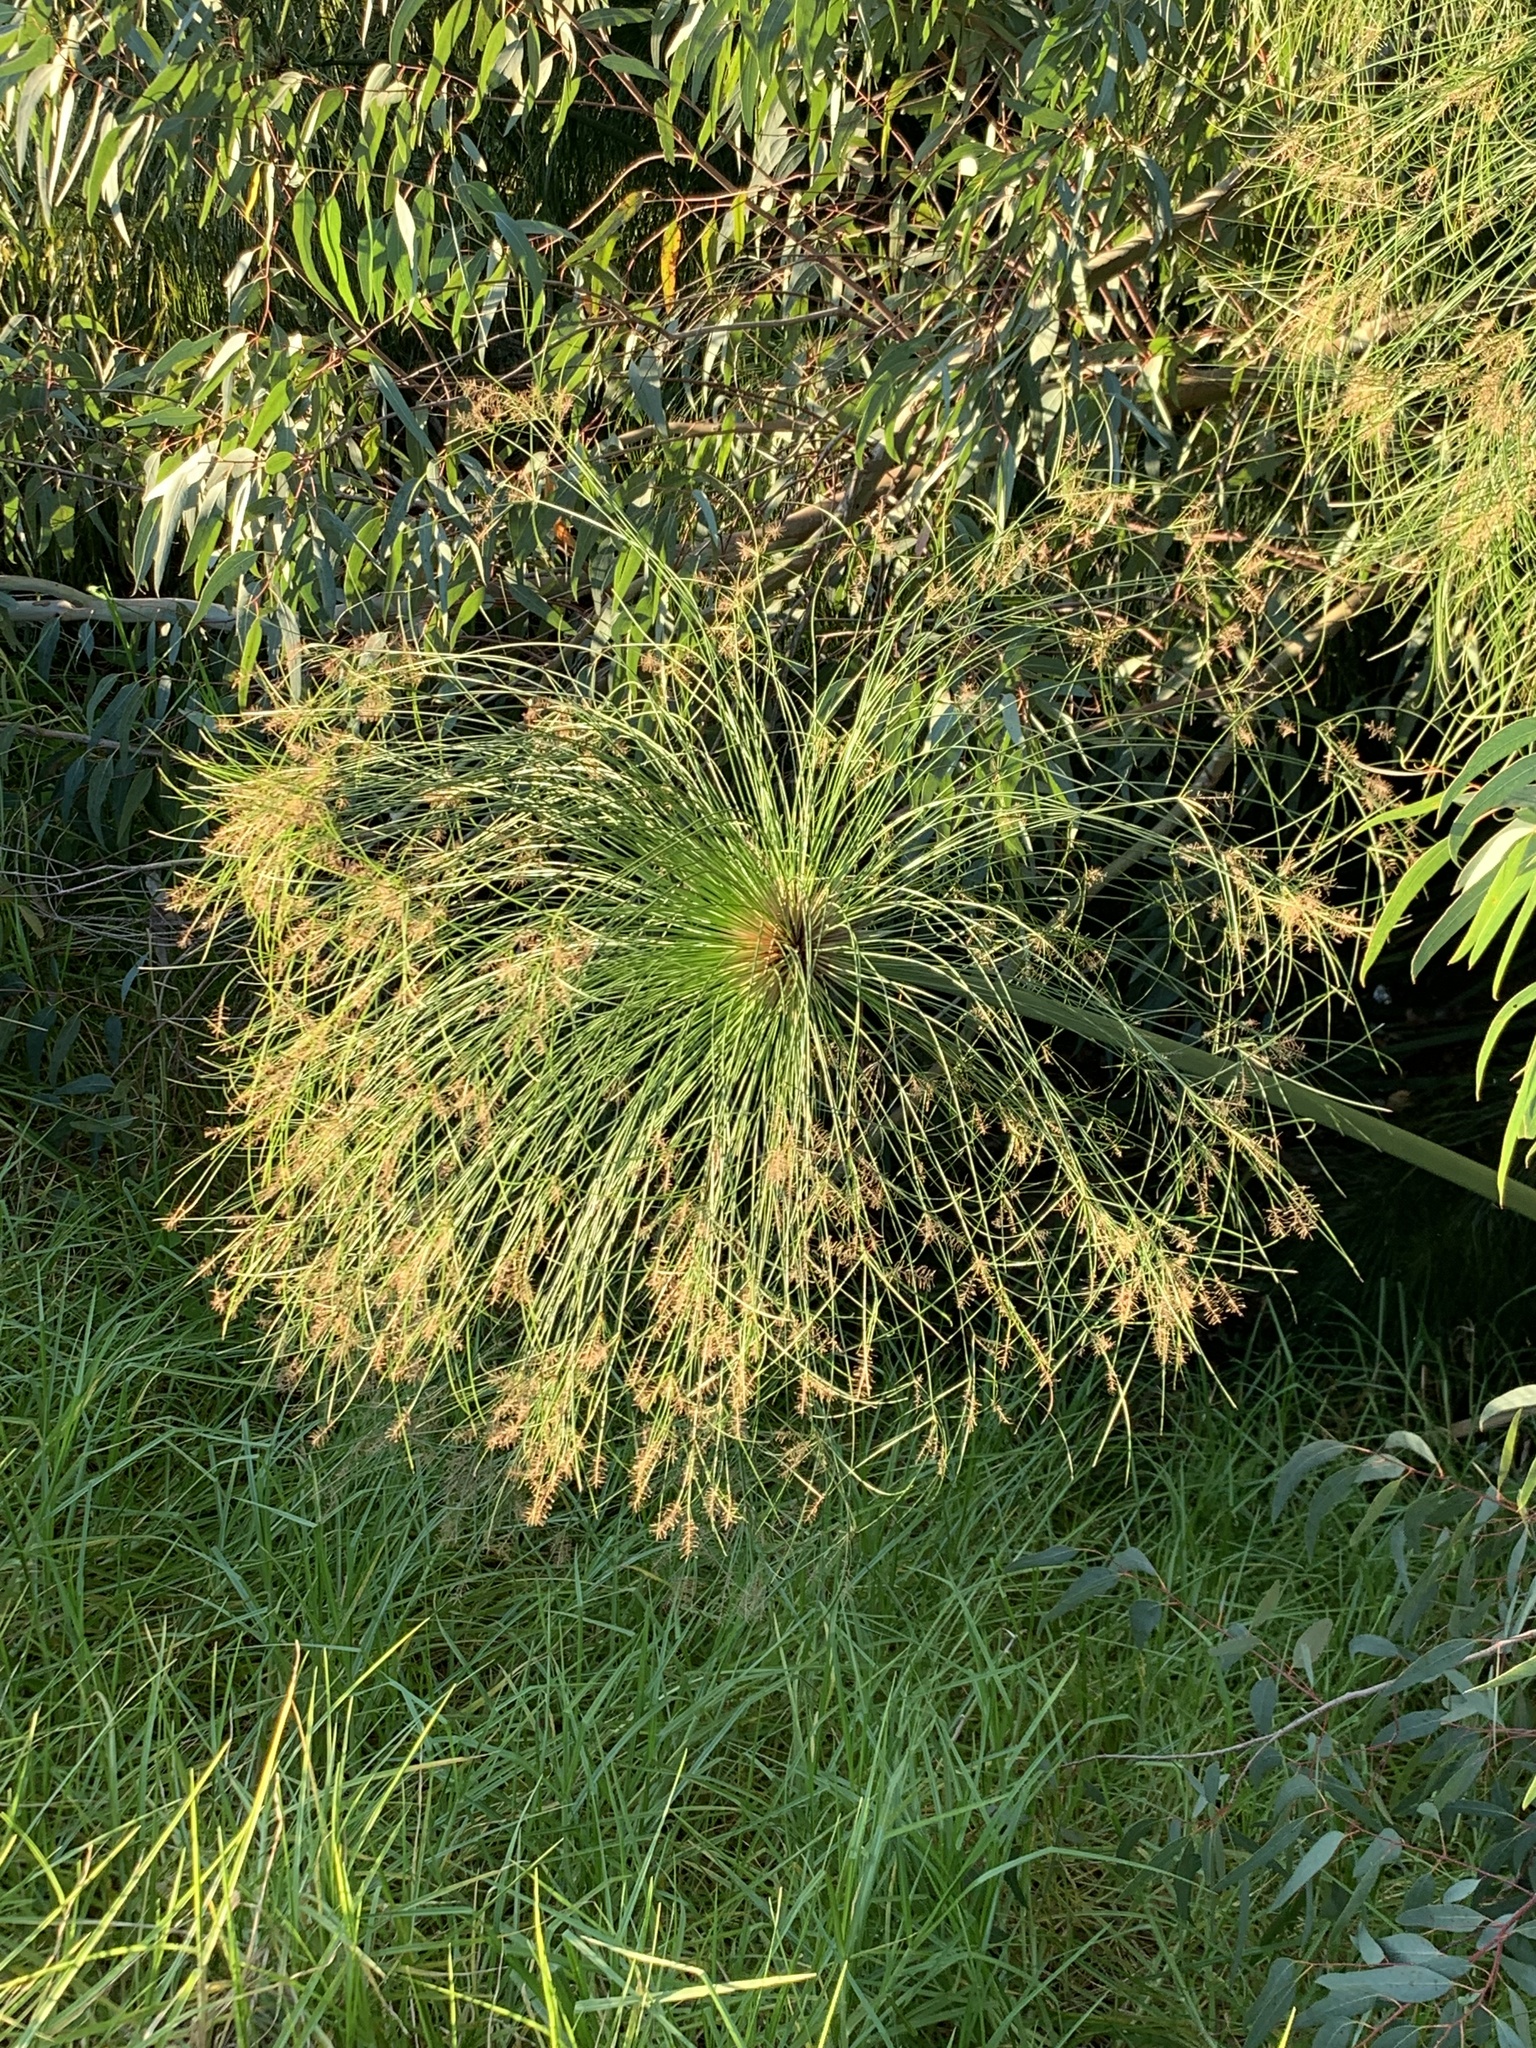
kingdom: Plantae
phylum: Tracheophyta
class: Liliopsida
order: Poales
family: Cyperaceae
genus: Cyperus
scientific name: Cyperus papyrus
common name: Papyrus
